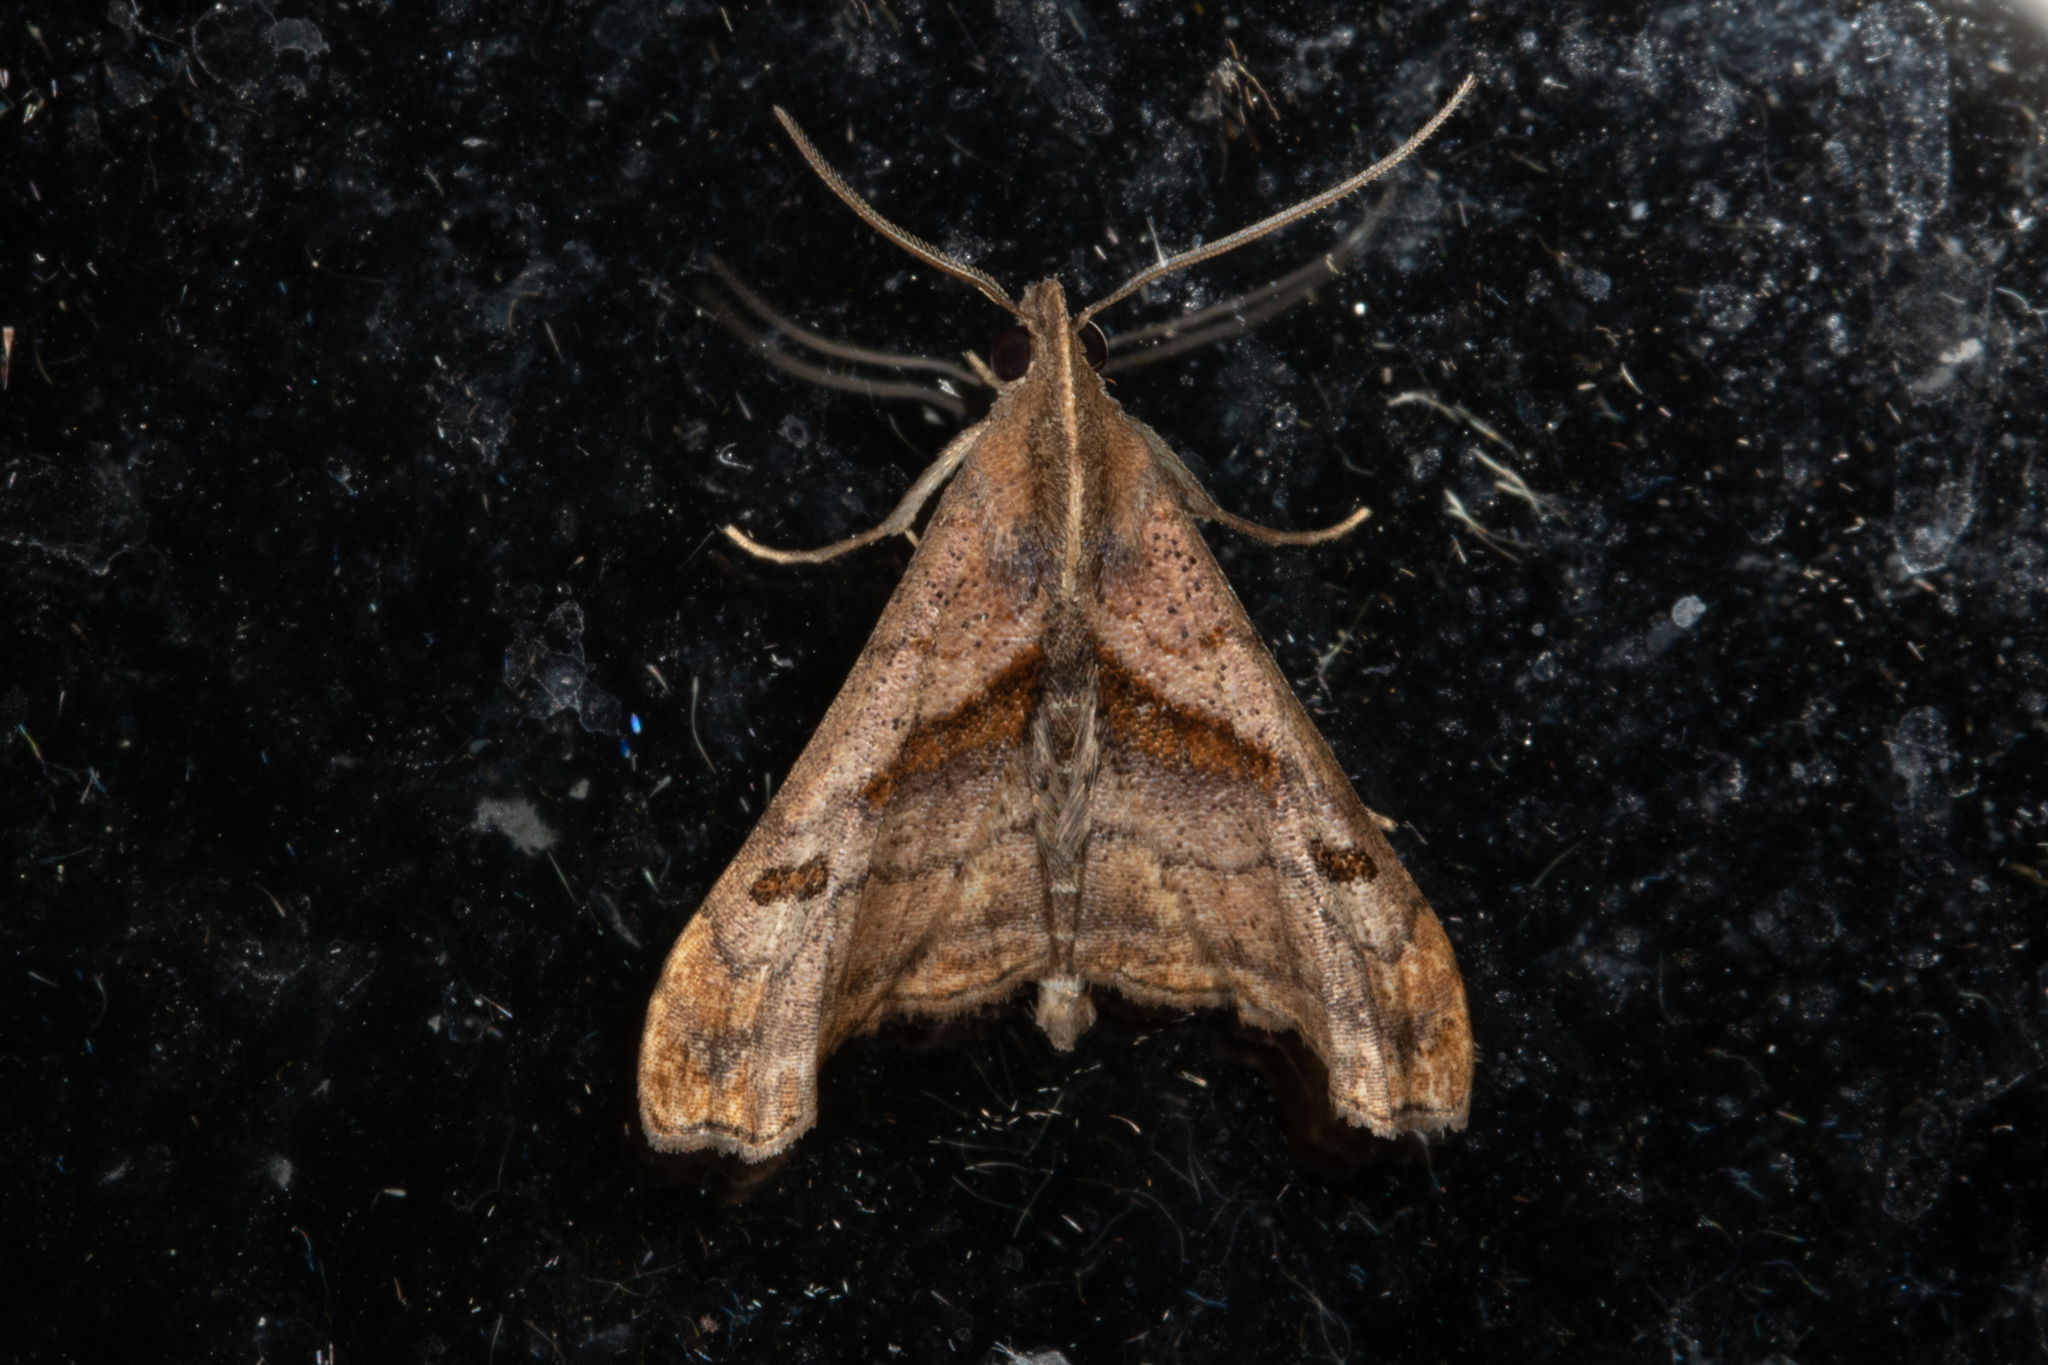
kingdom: Animalia
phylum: Arthropoda
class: Insecta
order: Lepidoptera
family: Erebidae
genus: Palthis
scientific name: Palthis angulalis
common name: Dark-spotted palthis moth
